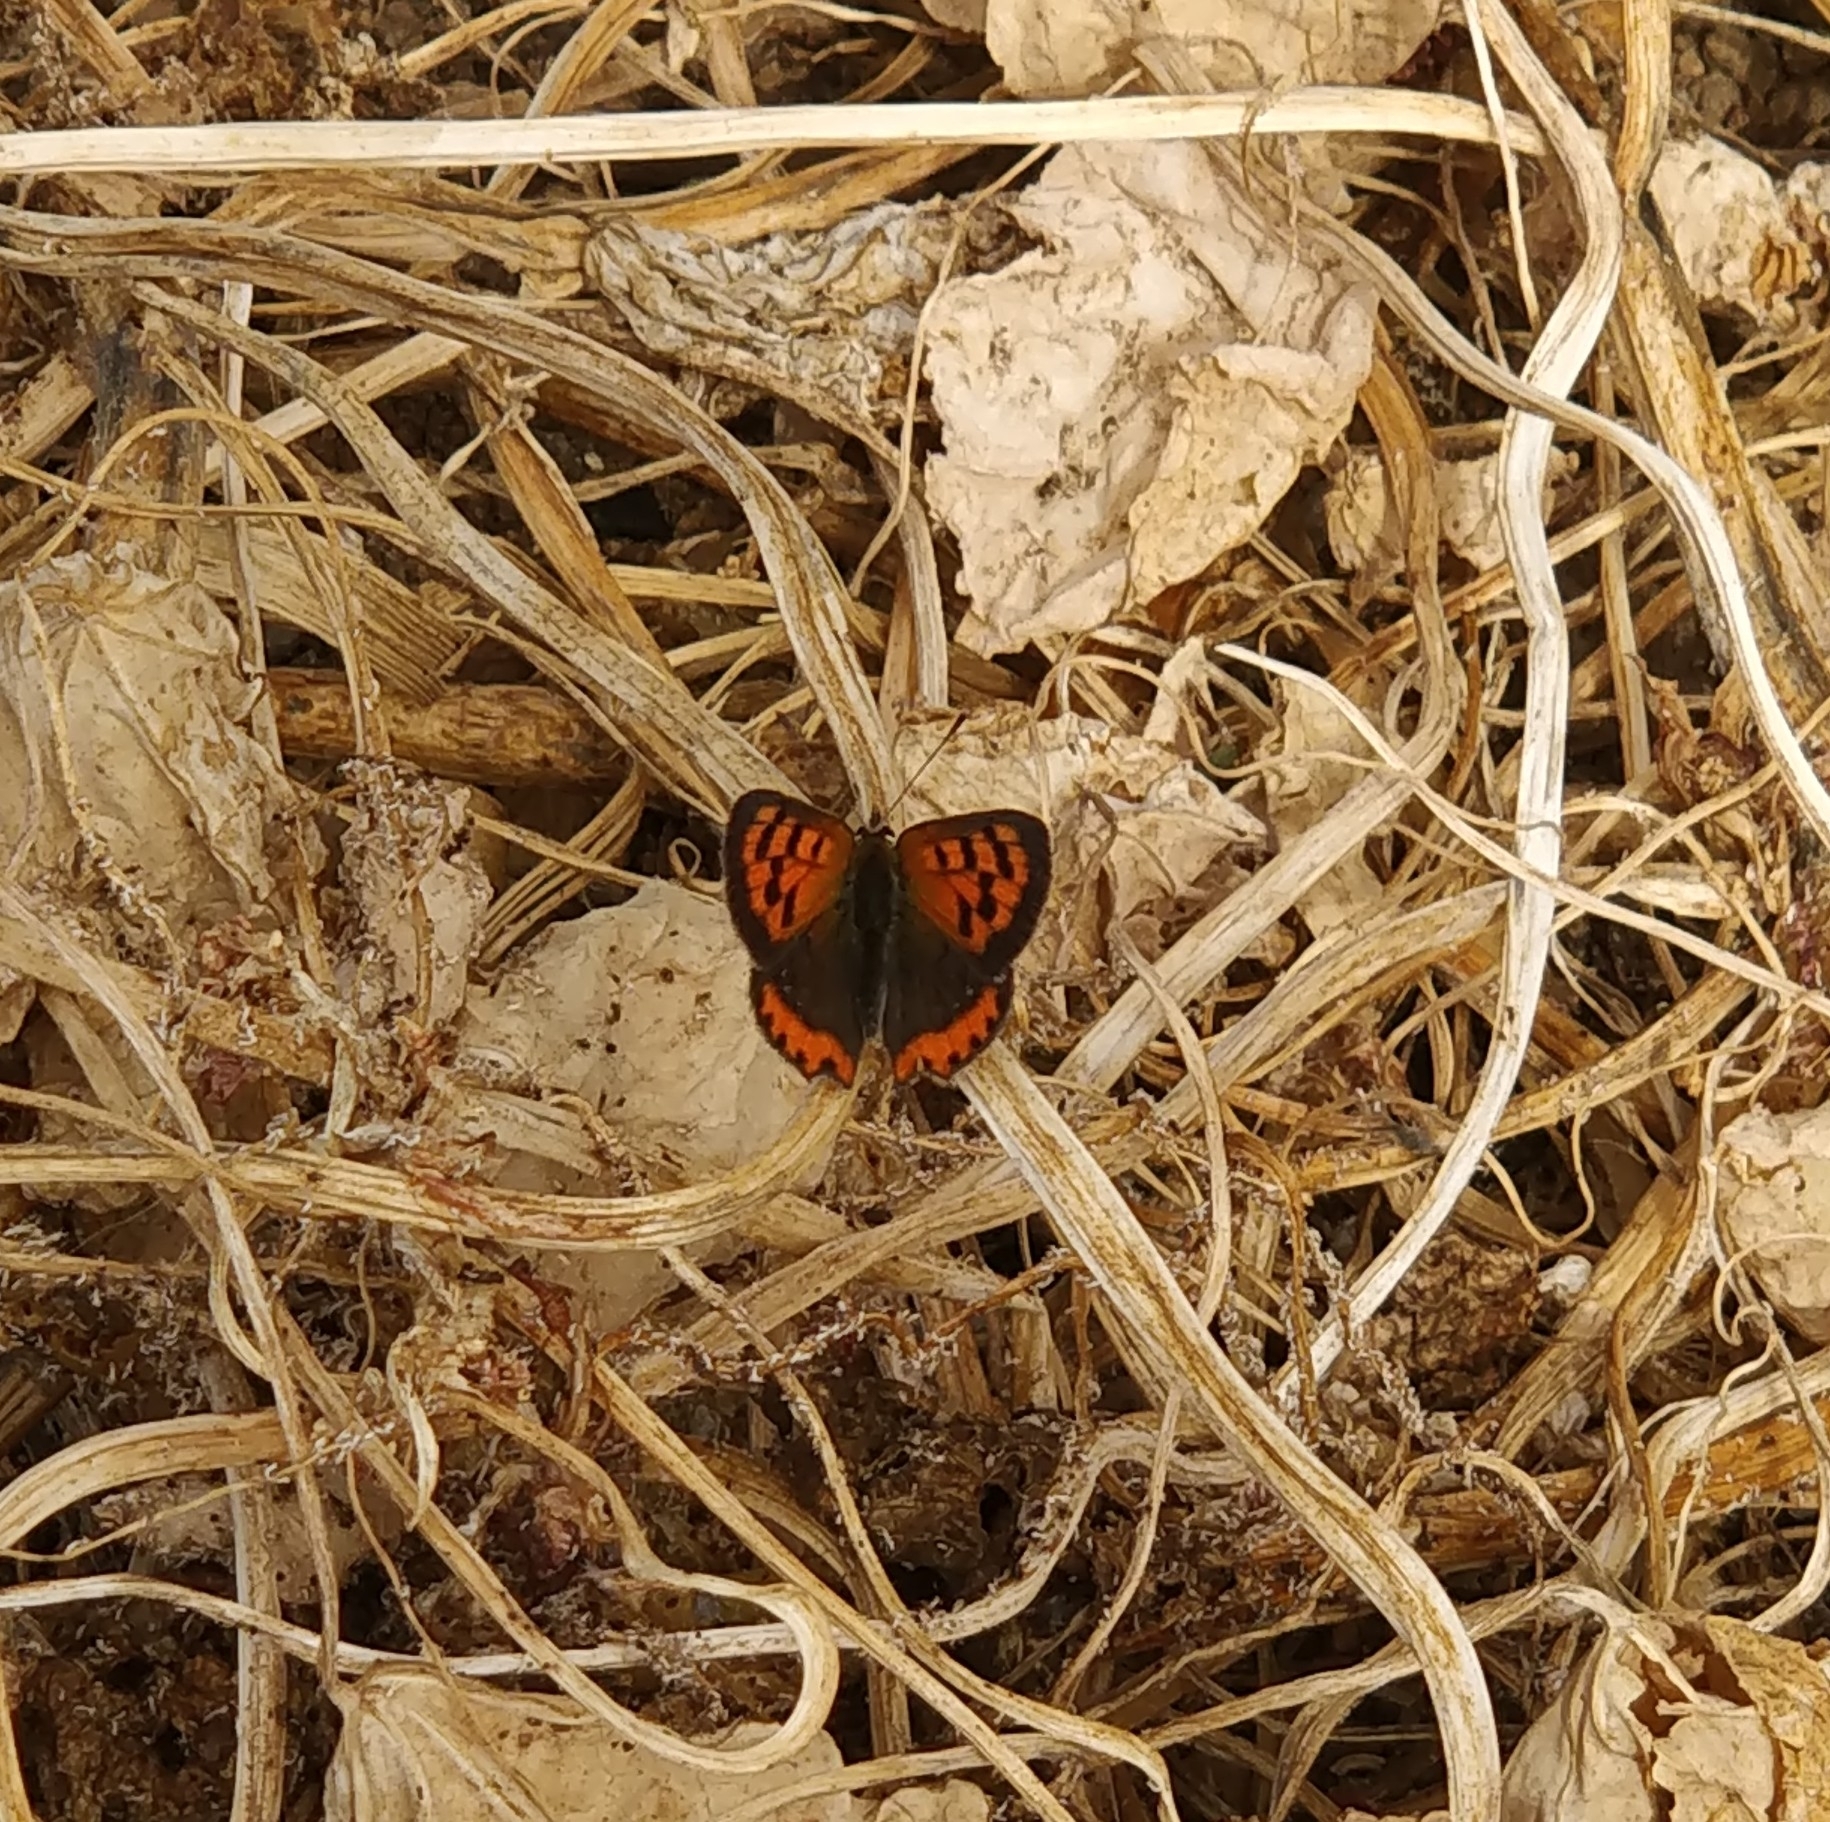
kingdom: Animalia
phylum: Arthropoda
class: Insecta
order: Lepidoptera
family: Lycaenidae
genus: Lycaena
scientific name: Lycaena phlaeas
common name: Small copper
